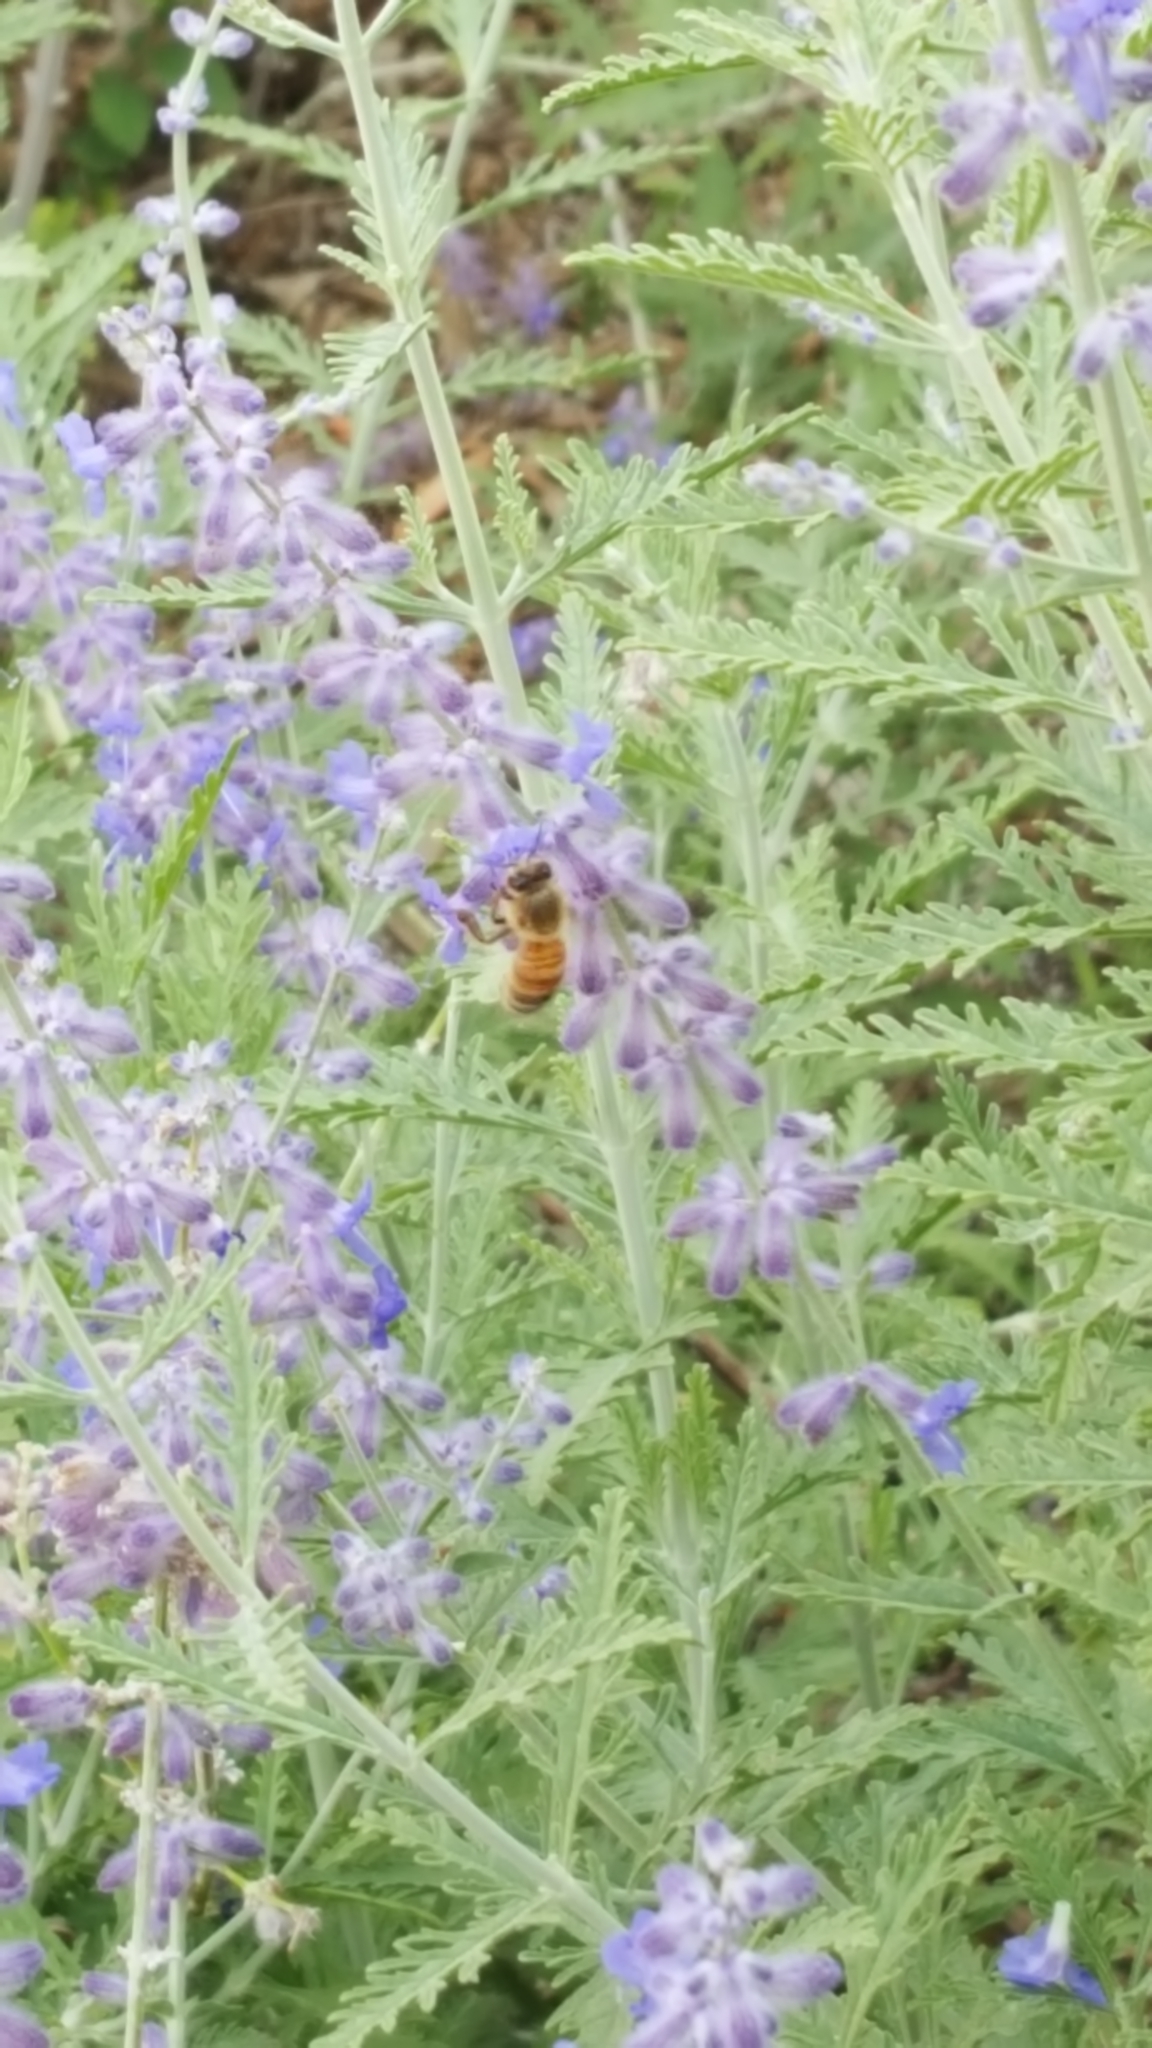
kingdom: Animalia
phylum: Arthropoda
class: Insecta
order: Hymenoptera
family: Apidae
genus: Apis
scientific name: Apis mellifera
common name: Honey bee
